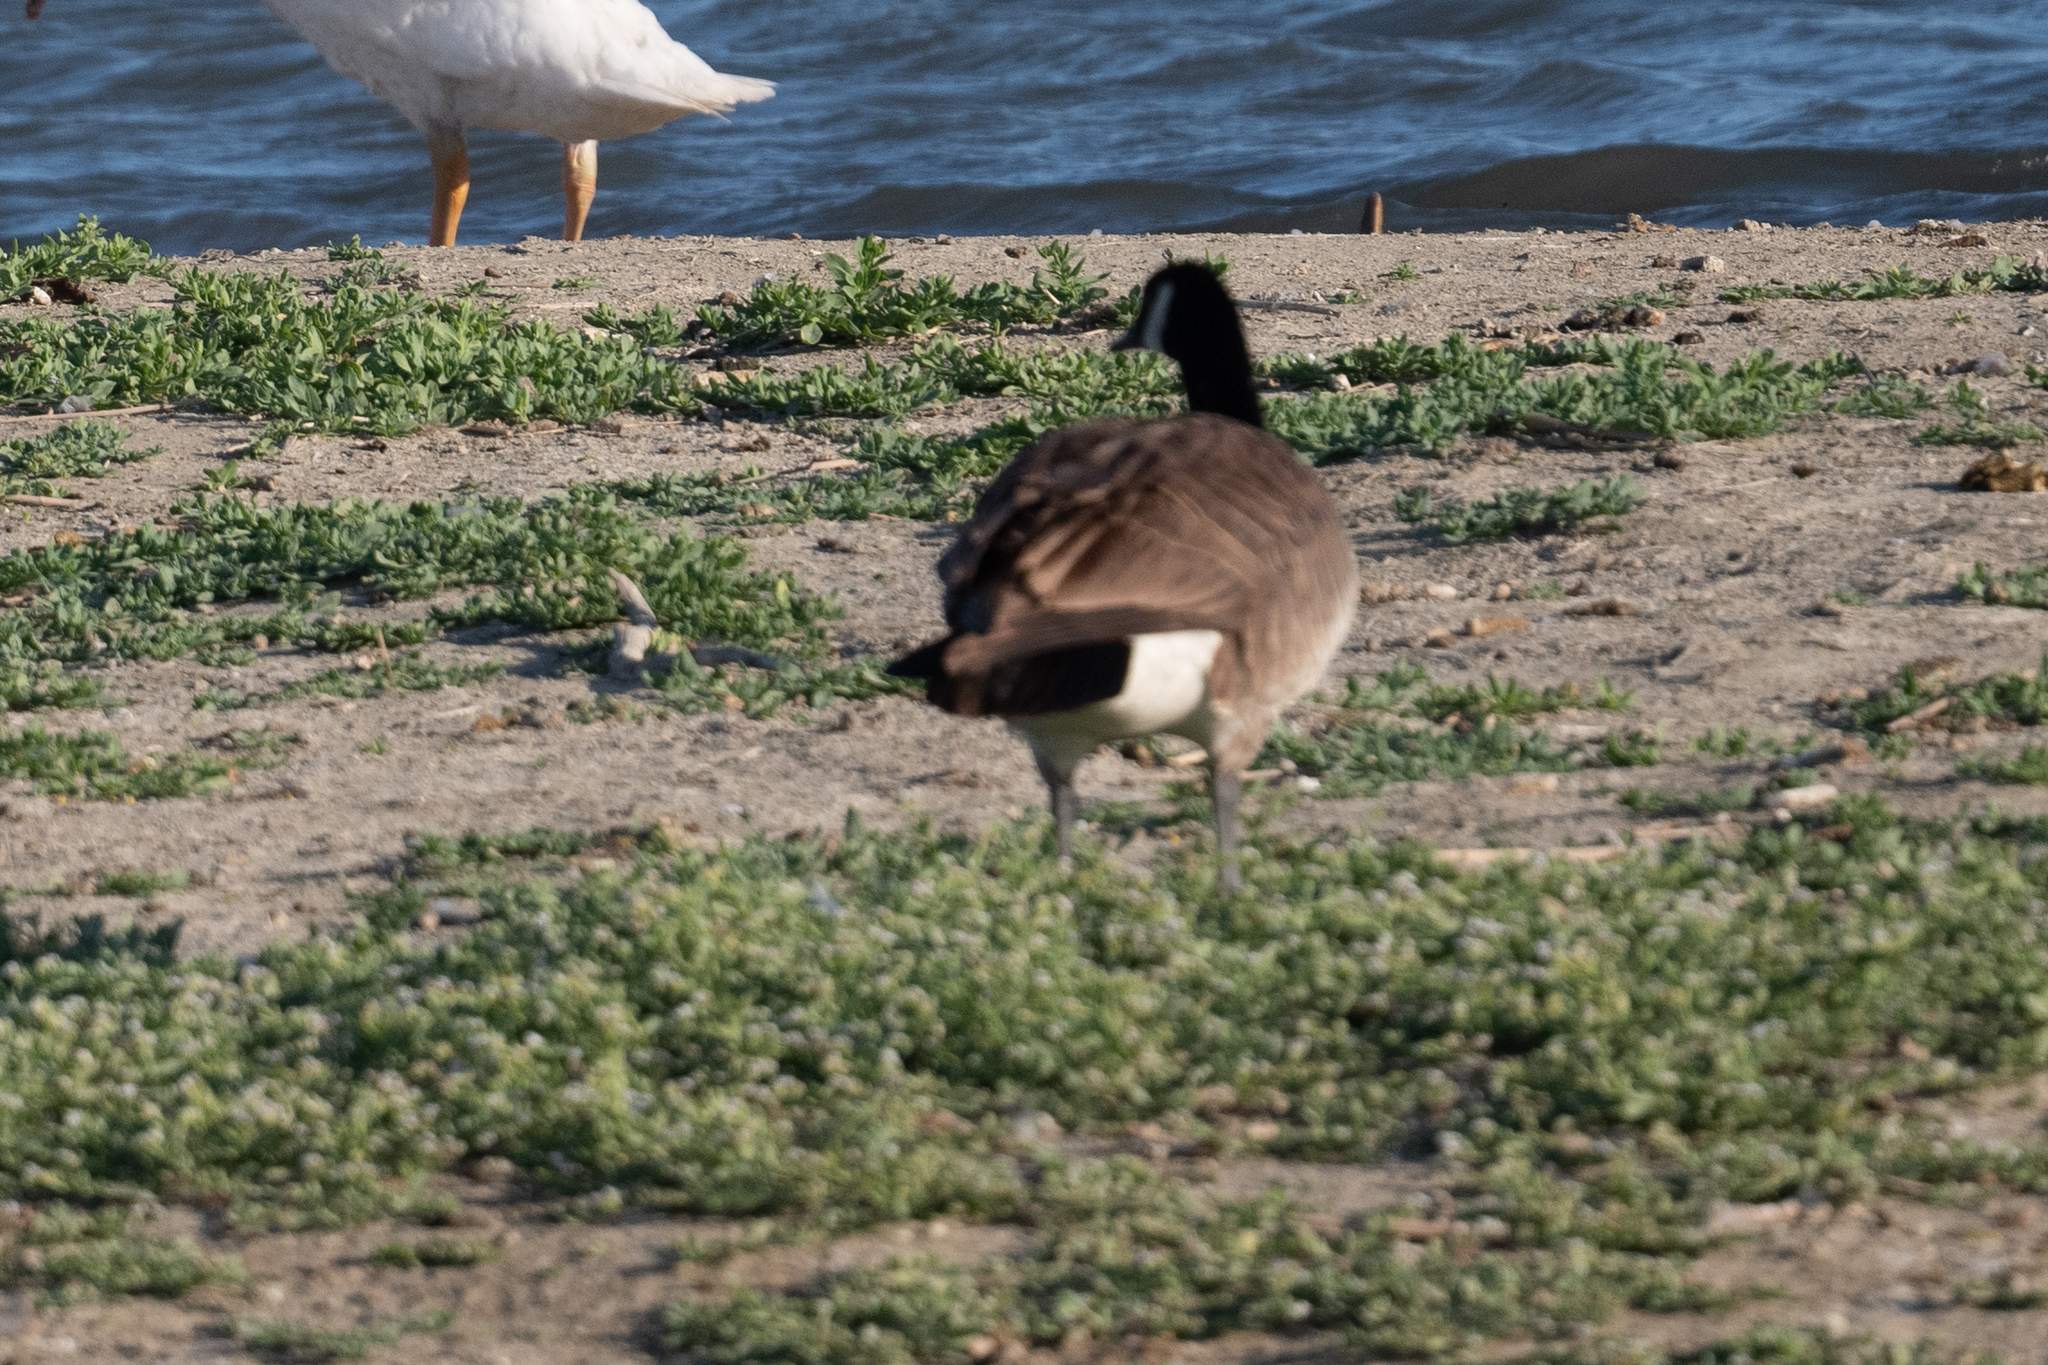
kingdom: Animalia
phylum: Chordata
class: Aves
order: Anseriformes
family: Anatidae
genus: Branta
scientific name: Branta canadensis
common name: Canada goose
